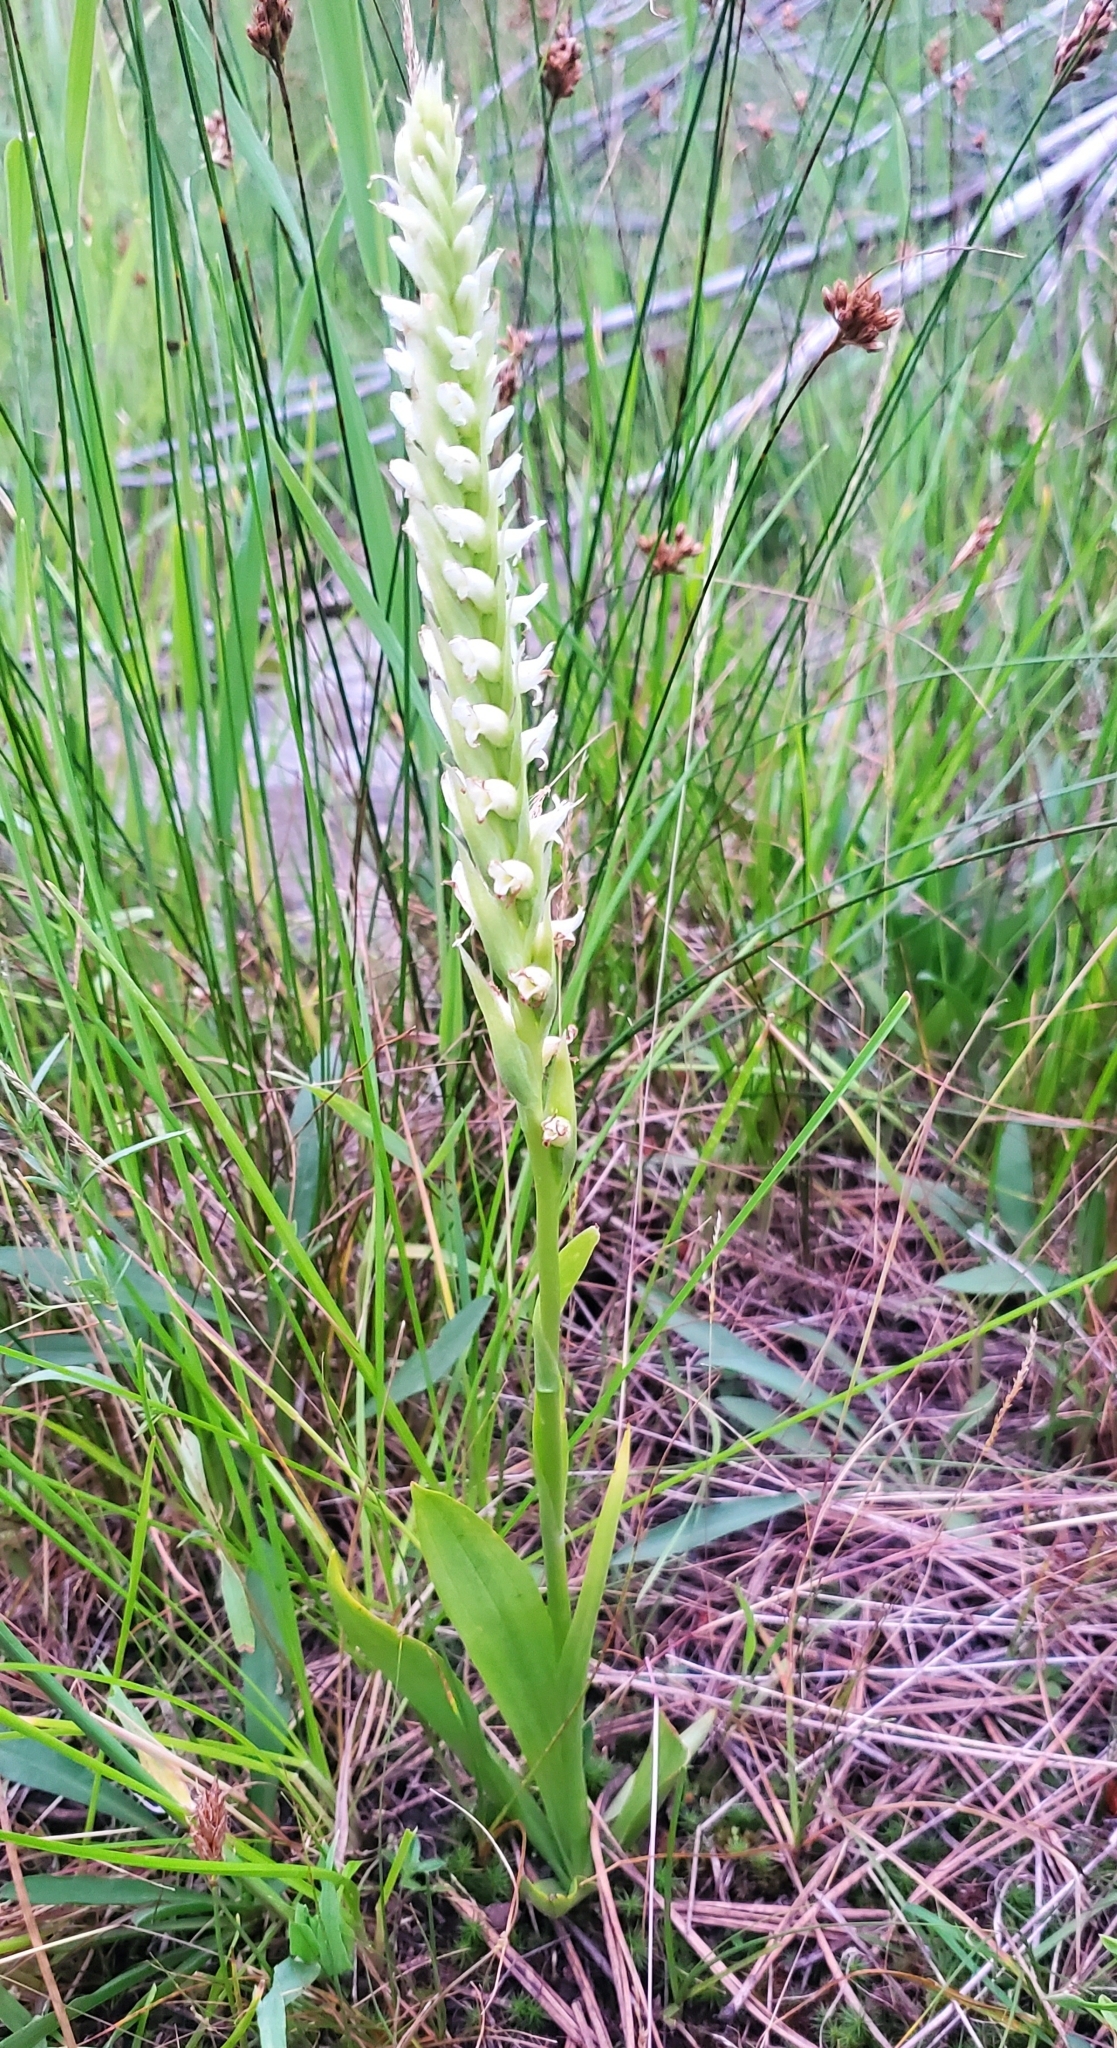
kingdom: Plantae
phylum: Tracheophyta
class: Liliopsida
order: Asparagales
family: Orchidaceae
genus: Spiranthes
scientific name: Spiranthes romanzoffiana
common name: Irish lady's-tresses
